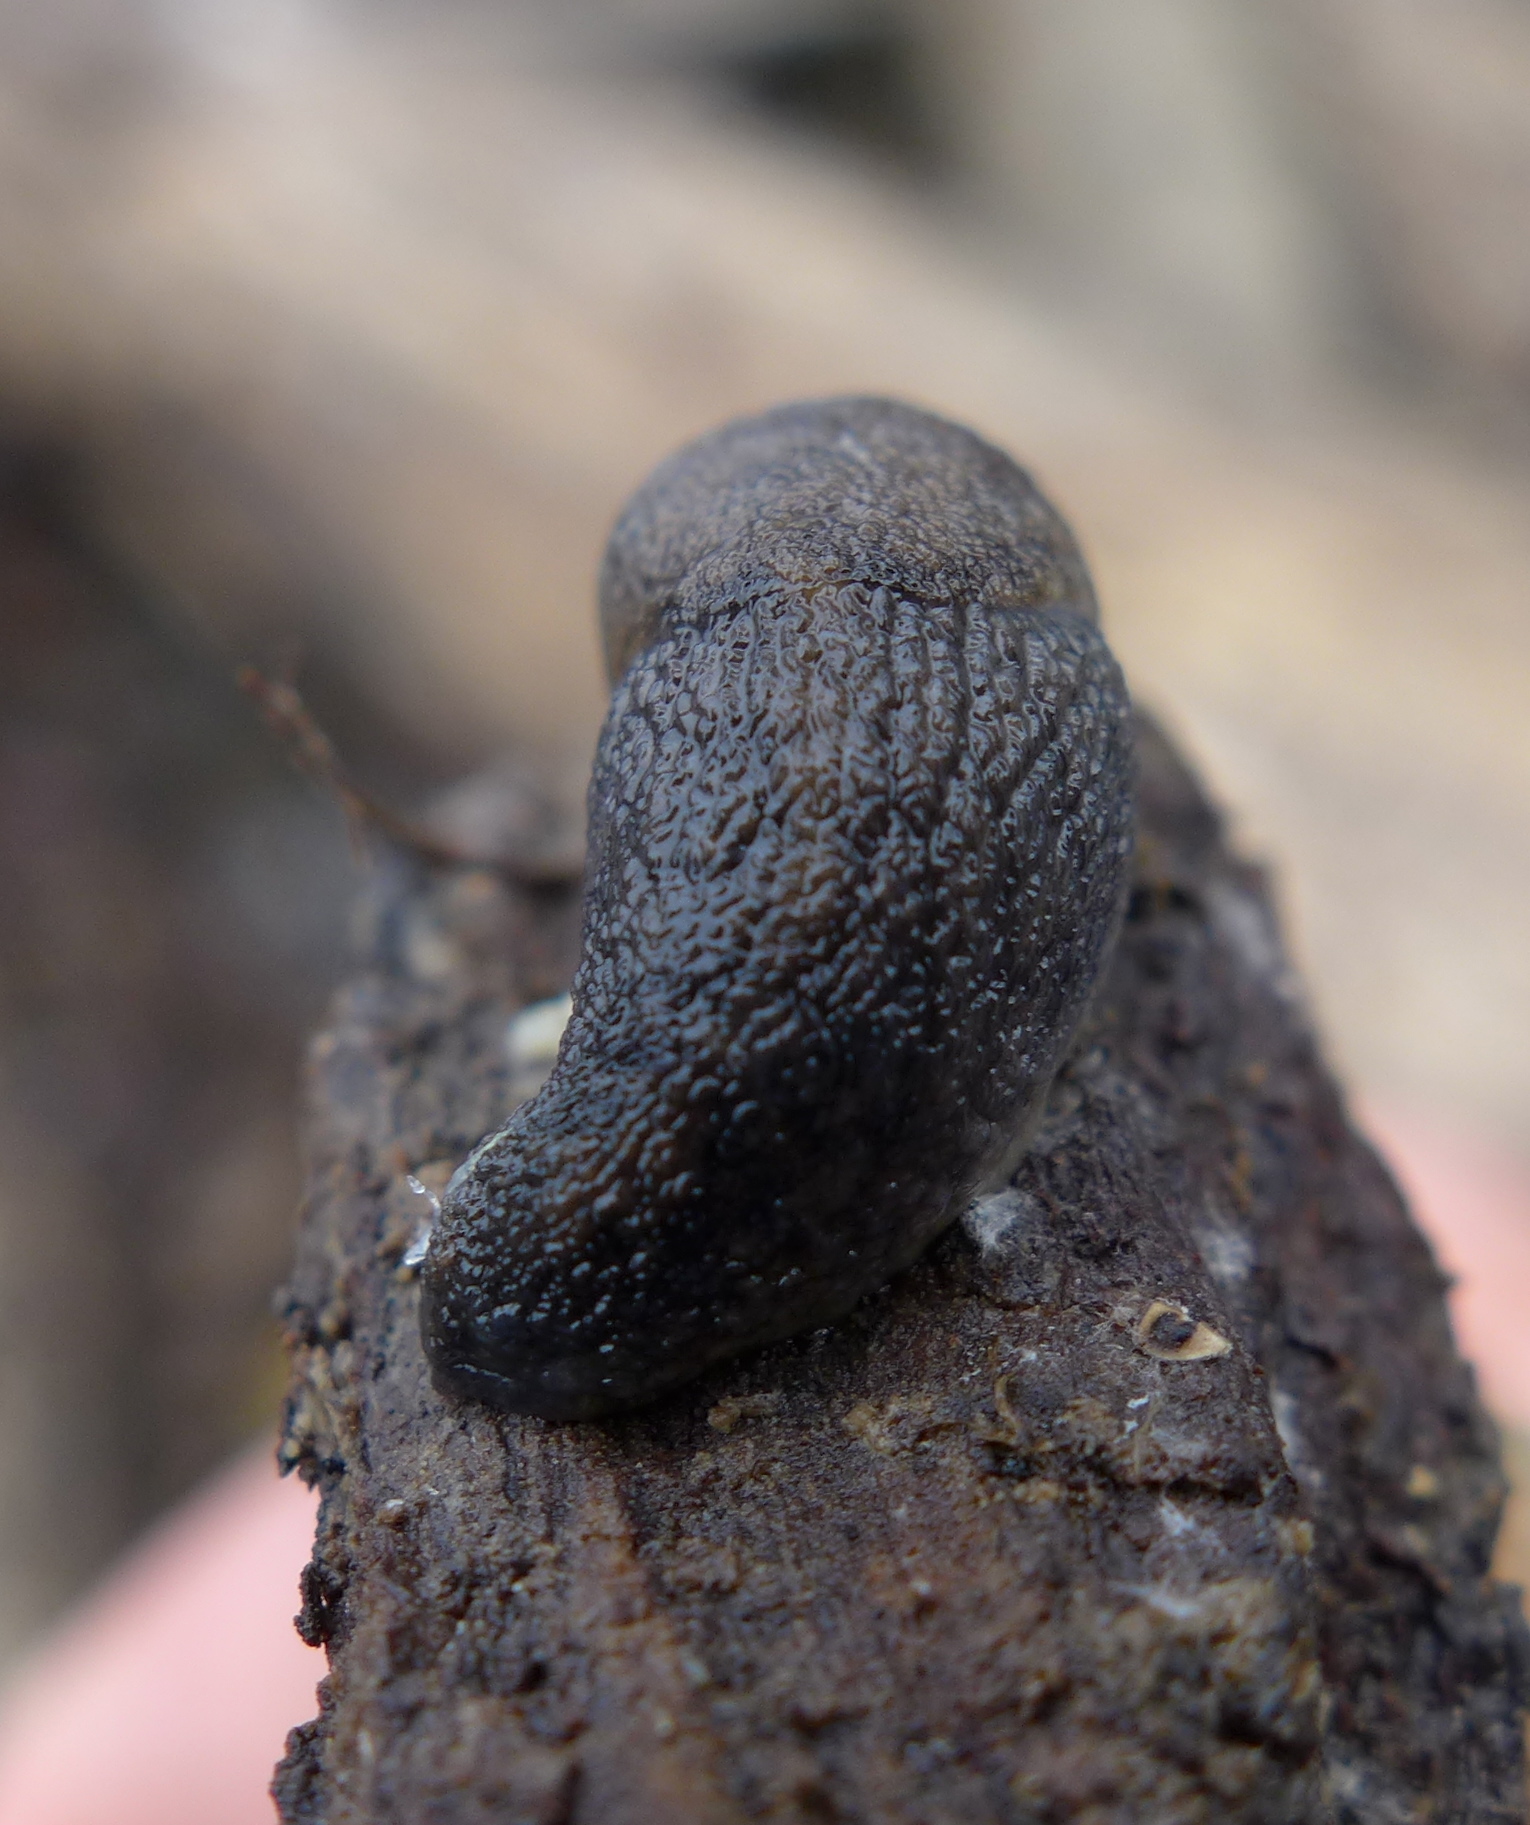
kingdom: Animalia
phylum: Mollusca
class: Gastropoda
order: Stylommatophora
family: Ariolimacidae
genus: Prophysaon
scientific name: Prophysaon andersonii
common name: Reticulate taildropper
